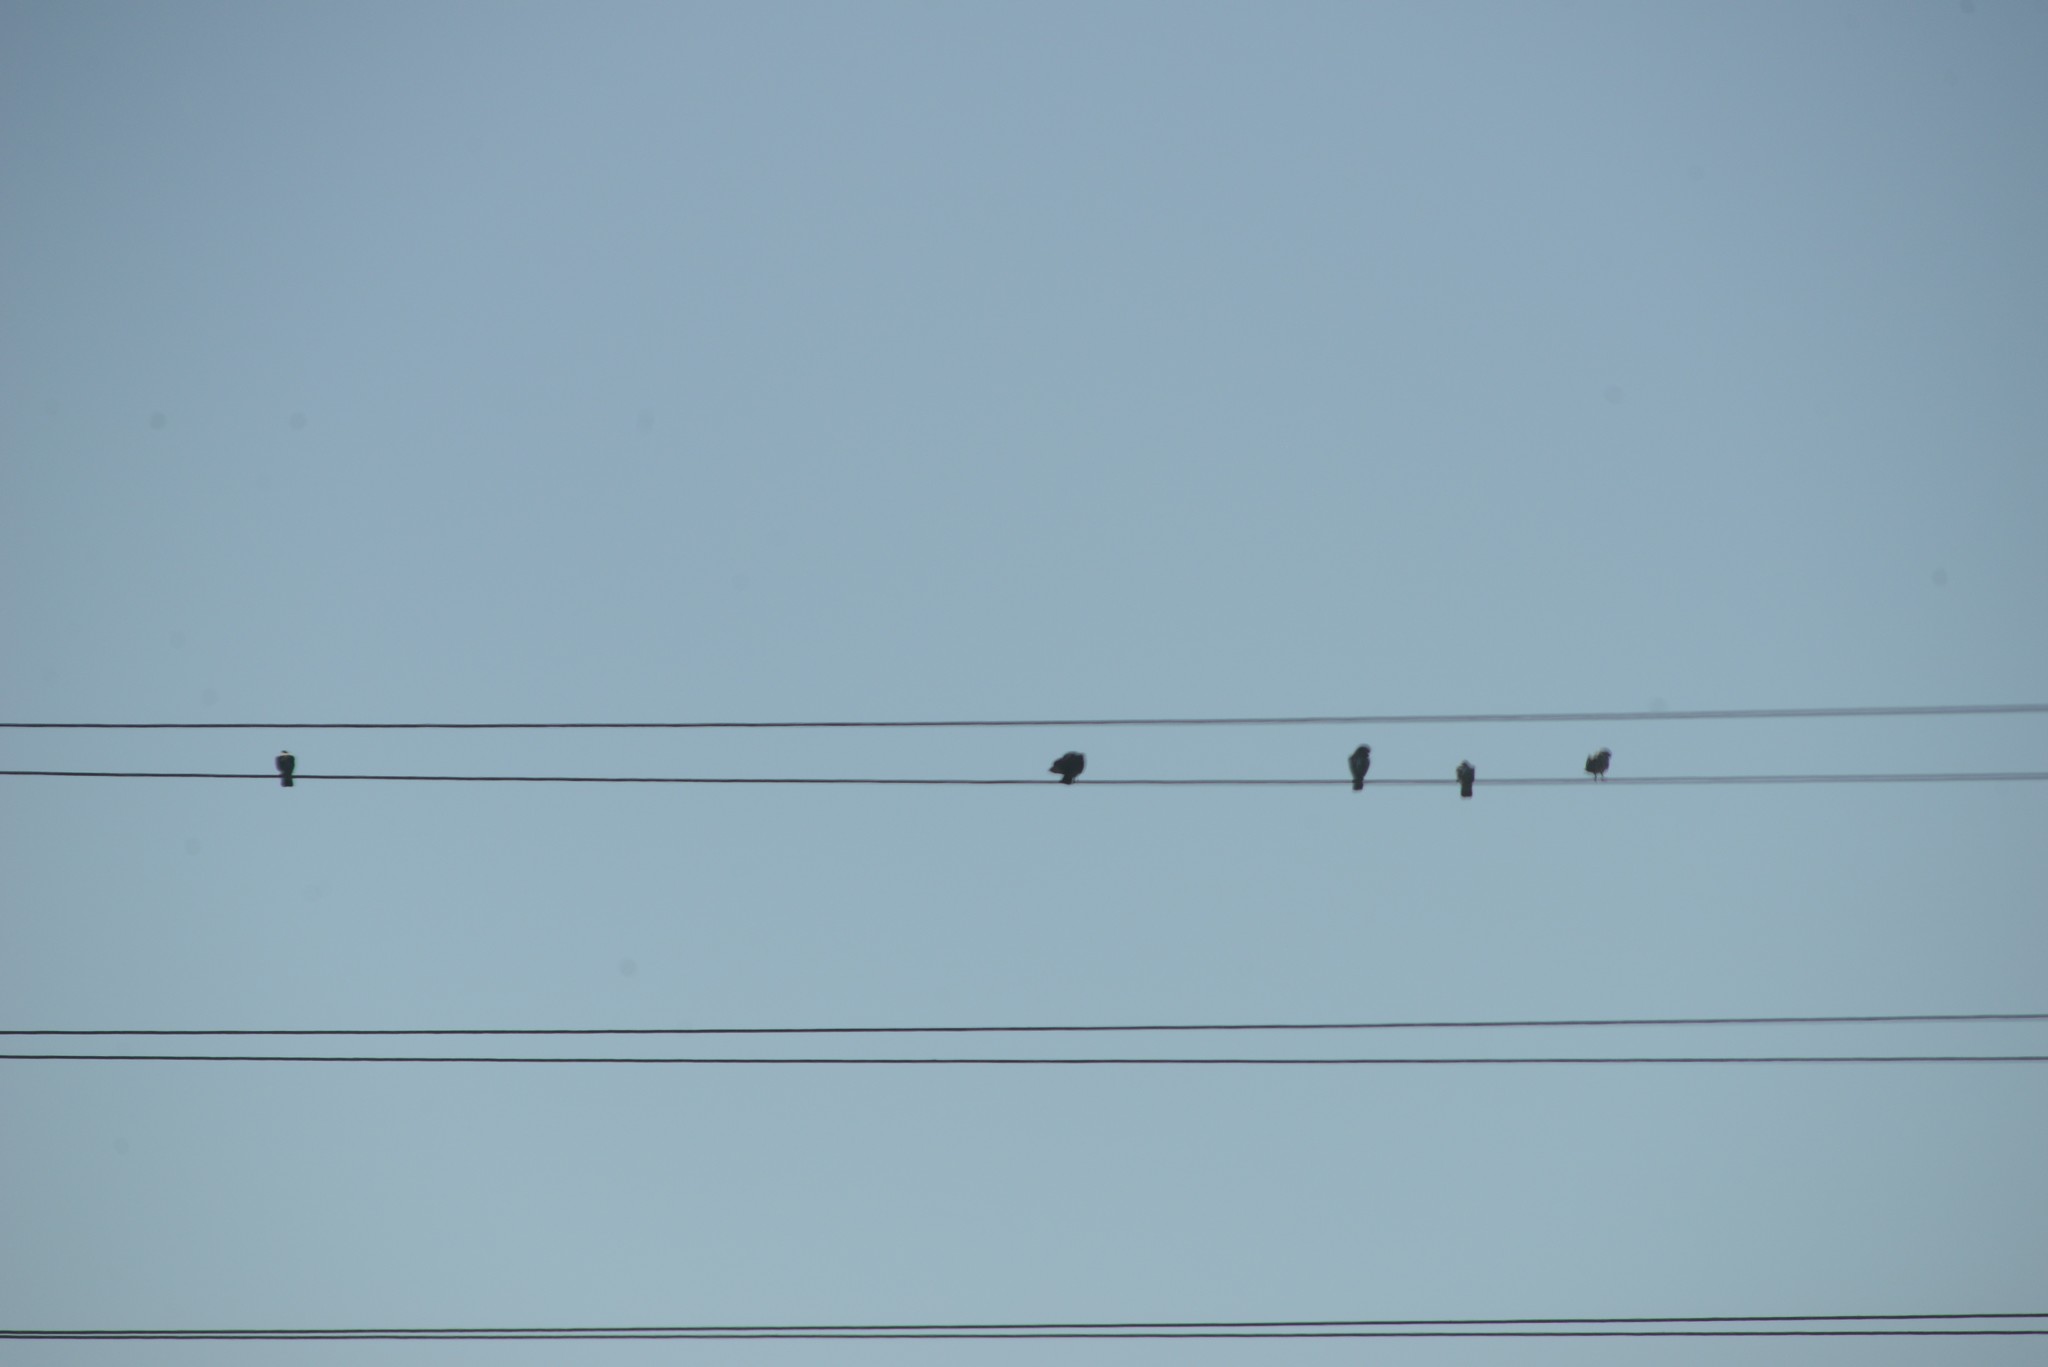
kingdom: Animalia
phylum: Chordata
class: Aves
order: Columbiformes
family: Columbidae
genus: Columba
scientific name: Columba livia
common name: Rock pigeon
